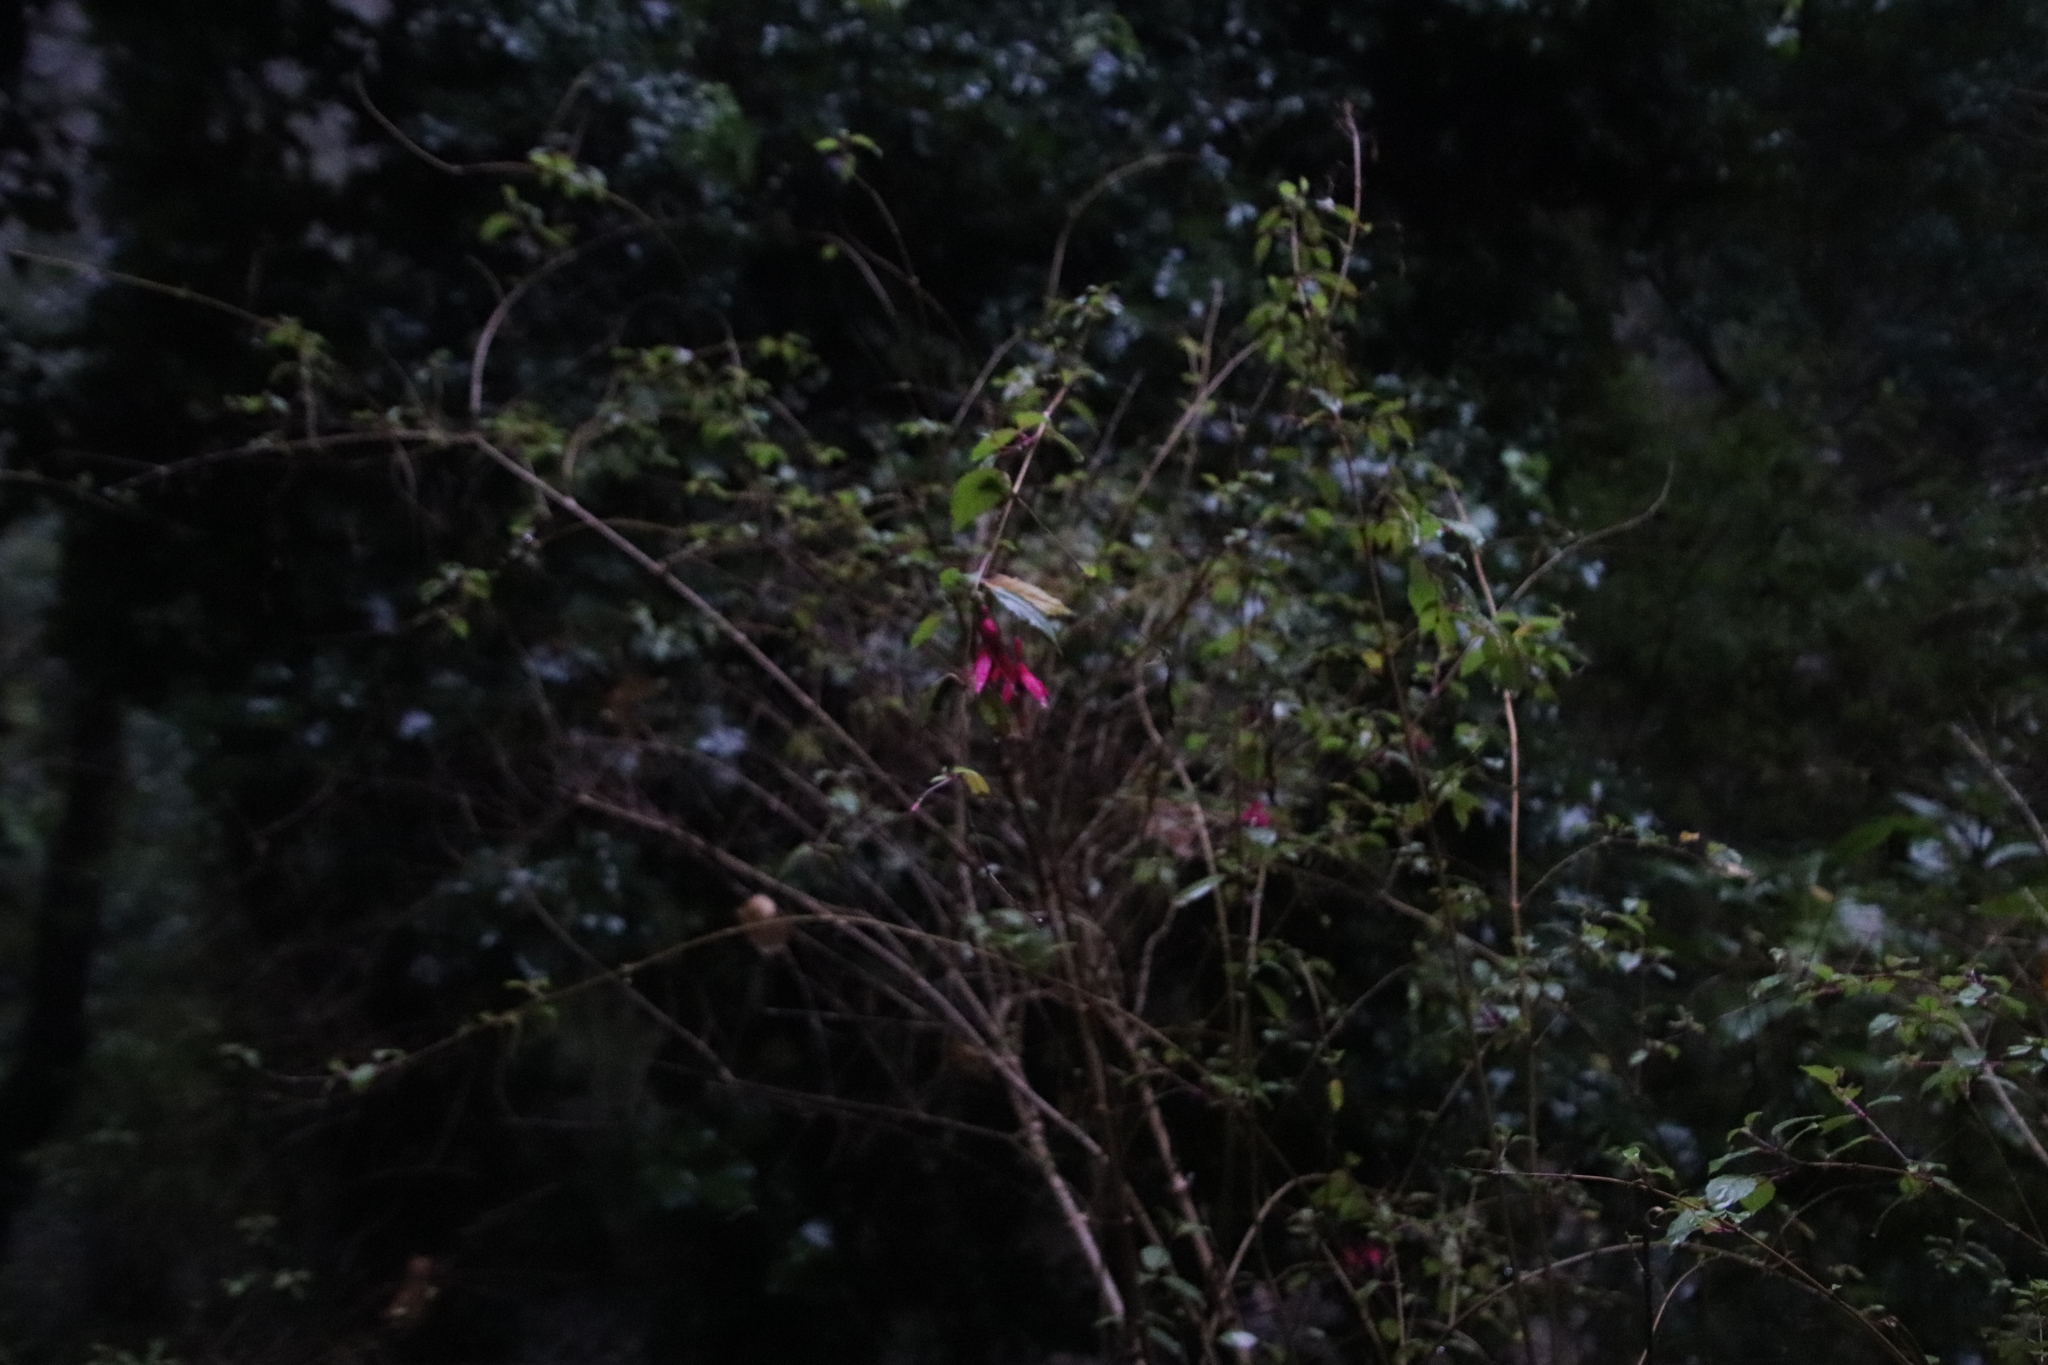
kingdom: Plantae
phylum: Tracheophyta
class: Magnoliopsida
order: Myrtales
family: Onagraceae
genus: Fuchsia
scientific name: Fuchsia magellanica
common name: Hardy fuchsia
